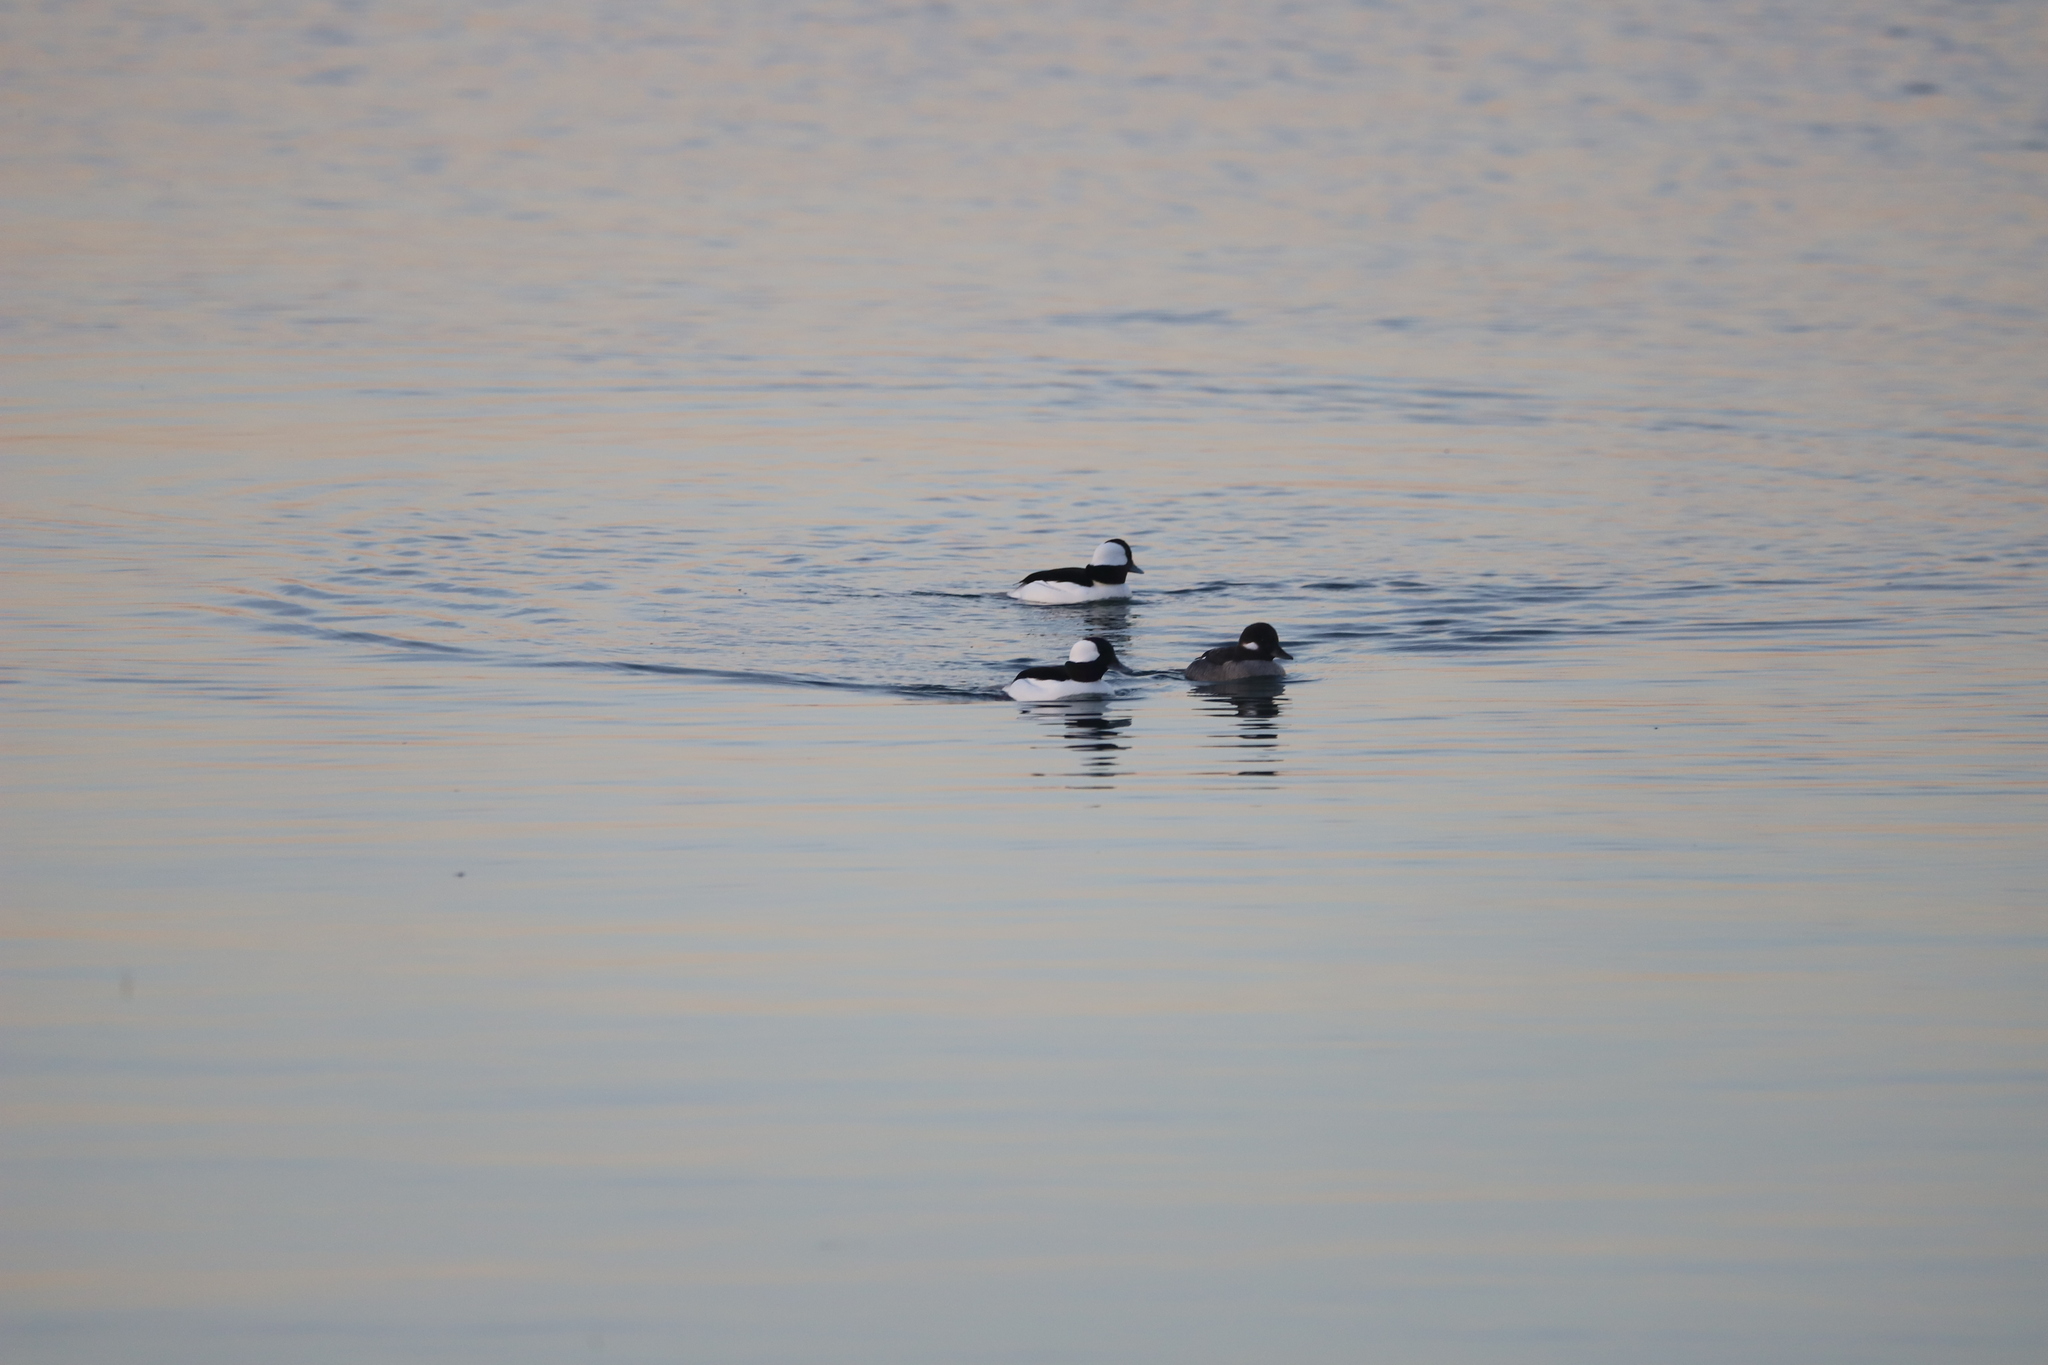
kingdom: Animalia
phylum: Chordata
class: Aves
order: Anseriformes
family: Anatidae
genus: Bucephala
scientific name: Bucephala albeola
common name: Bufflehead
